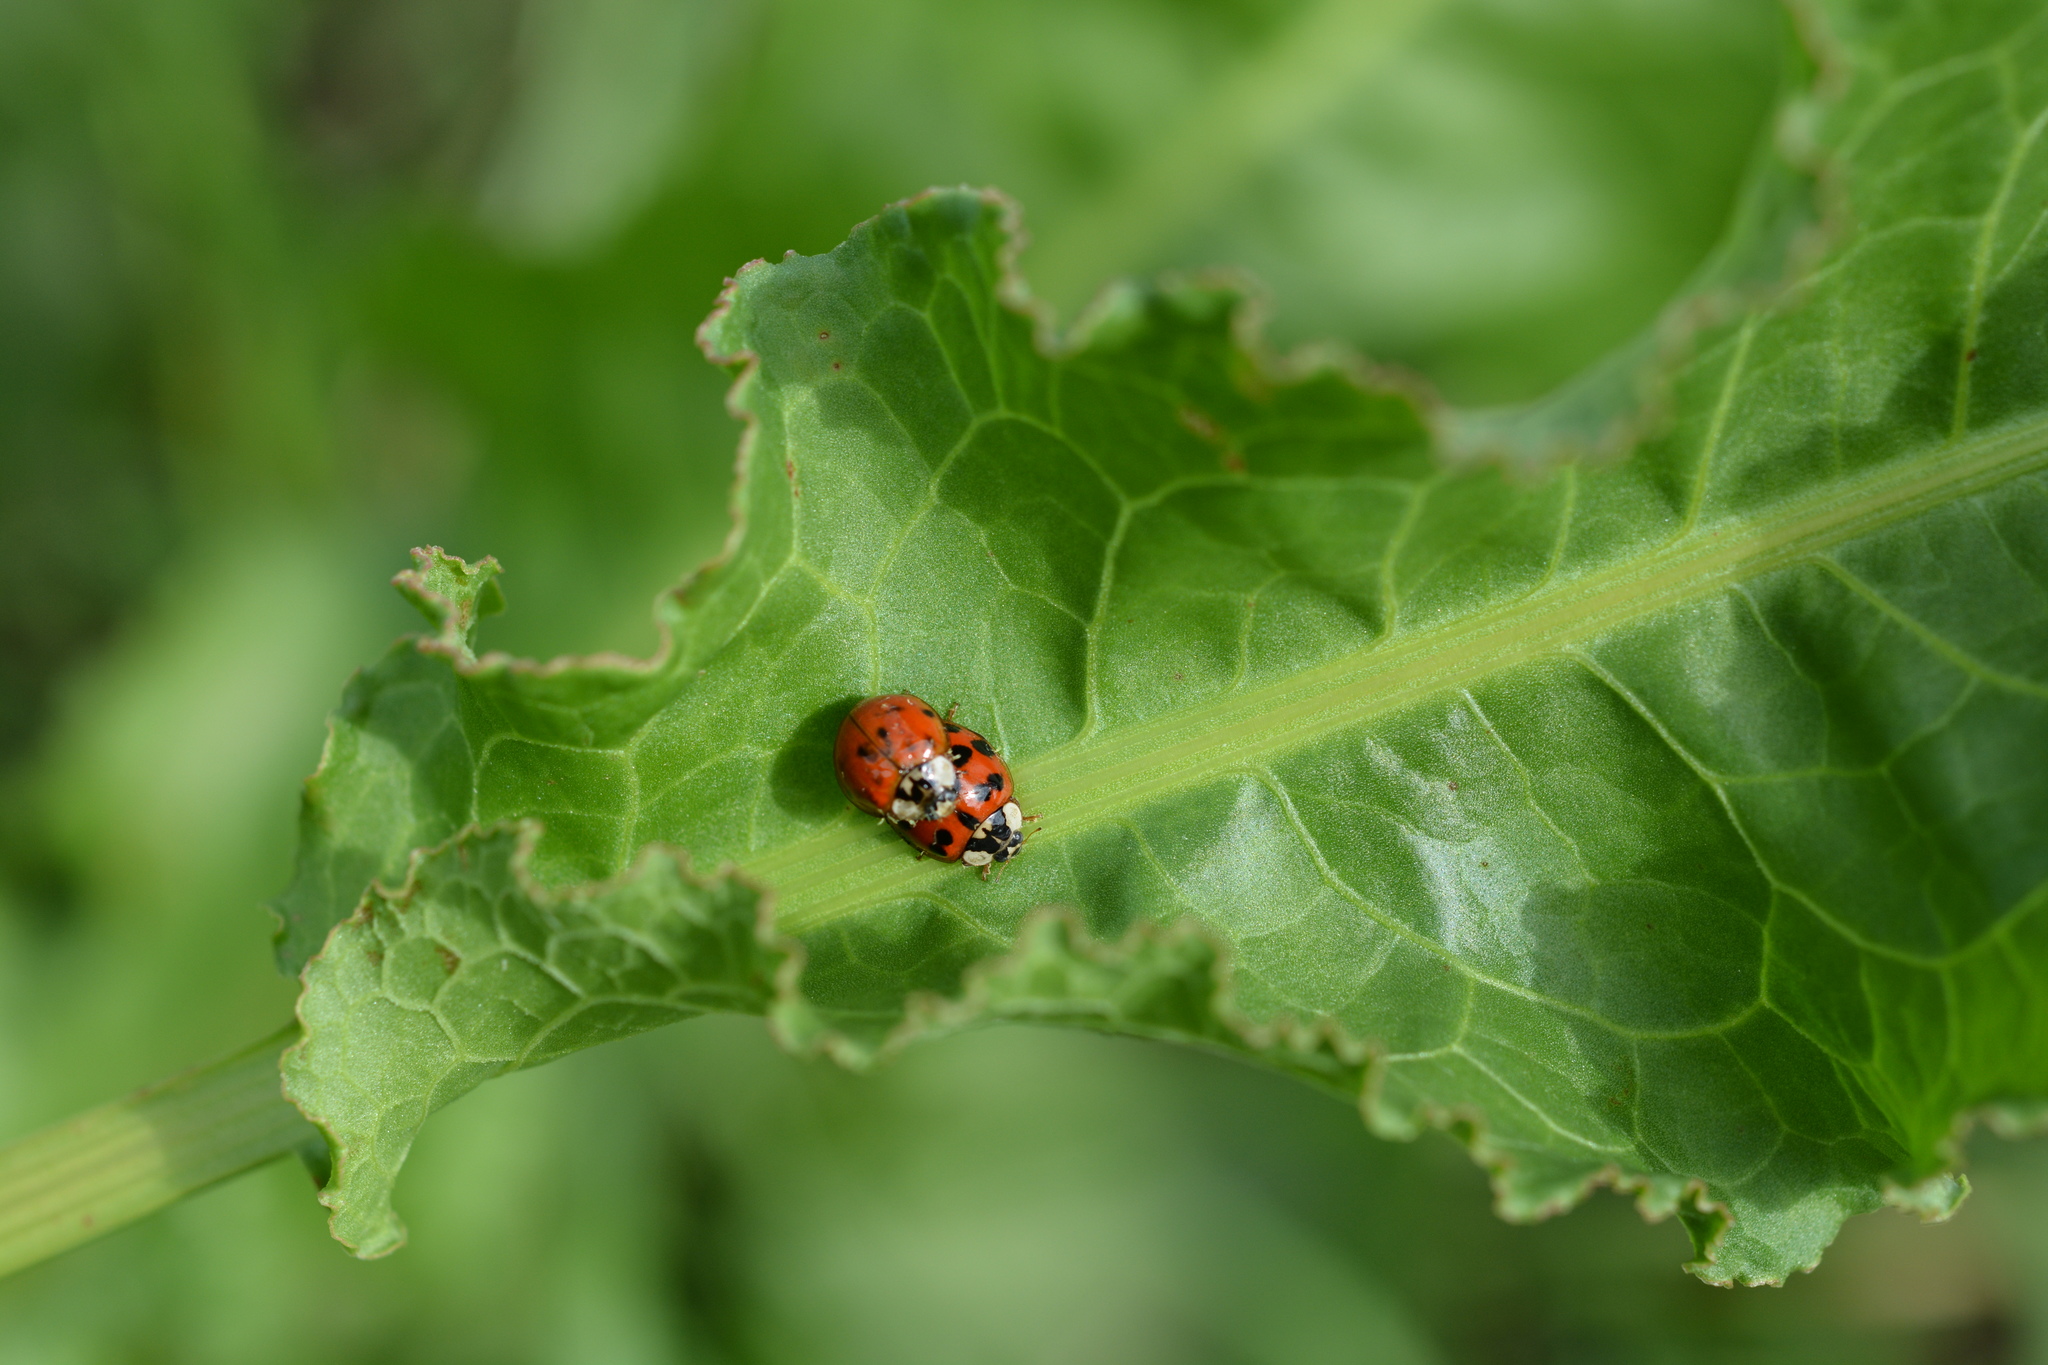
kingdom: Animalia
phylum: Arthropoda
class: Insecta
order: Coleoptera
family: Coccinellidae
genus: Harmonia
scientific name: Harmonia axyridis
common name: Harlequin ladybird
